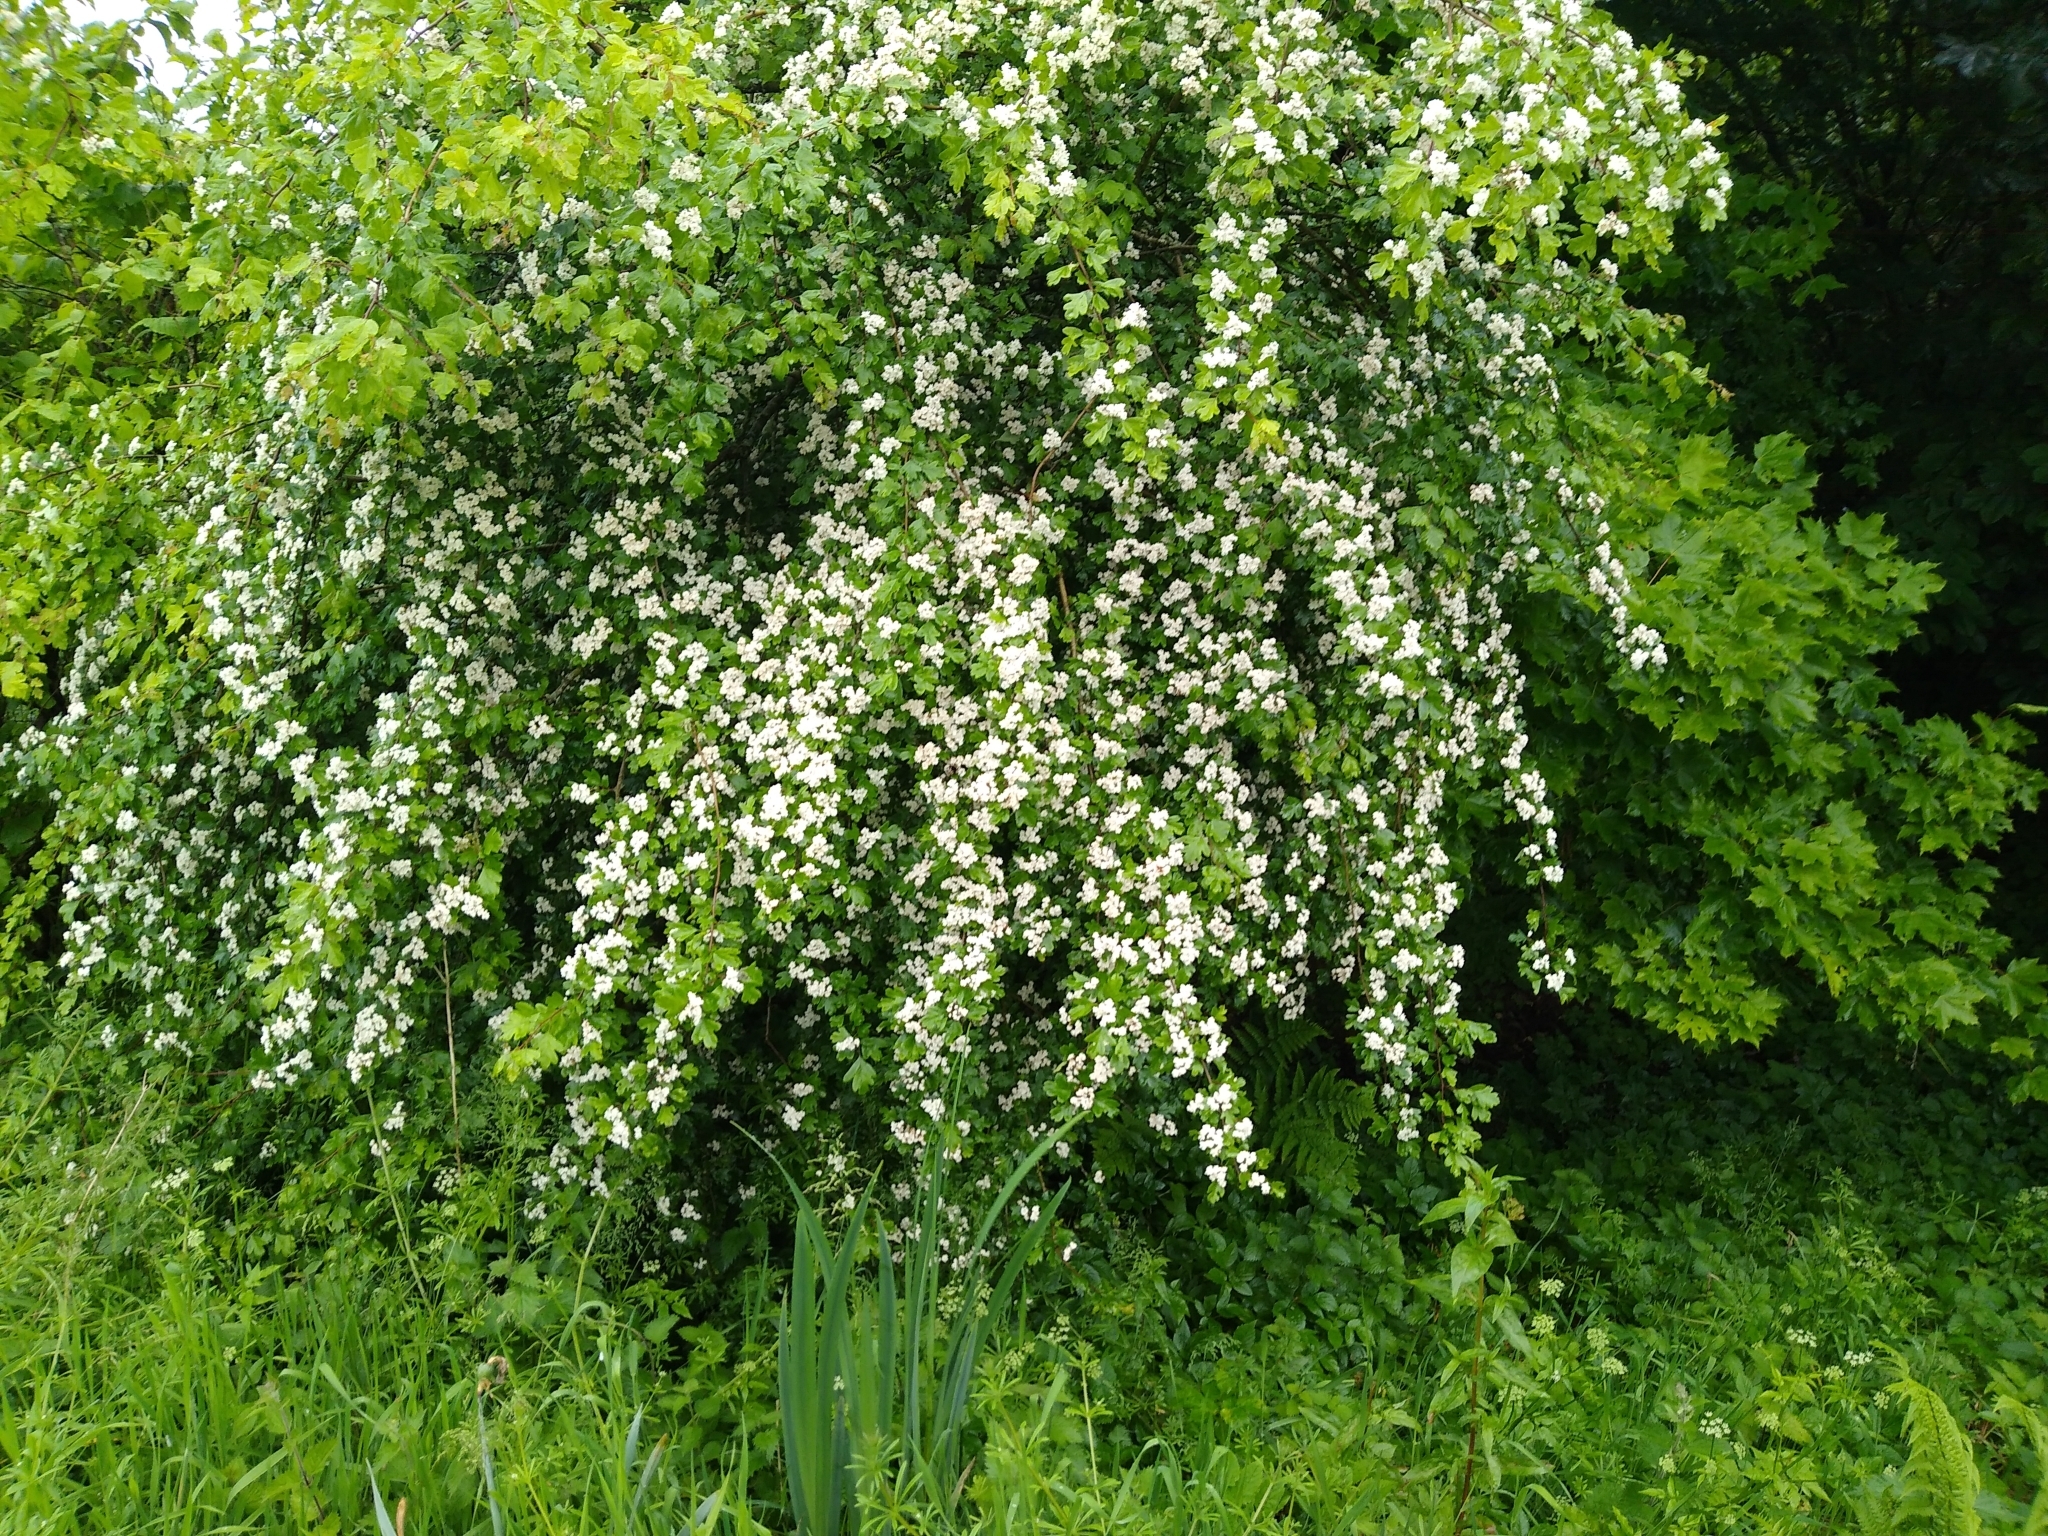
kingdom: Plantae
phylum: Tracheophyta
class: Magnoliopsida
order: Rosales
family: Rosaceae
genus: Crataegus
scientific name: Crataegus monogyna
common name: Hawthorn
